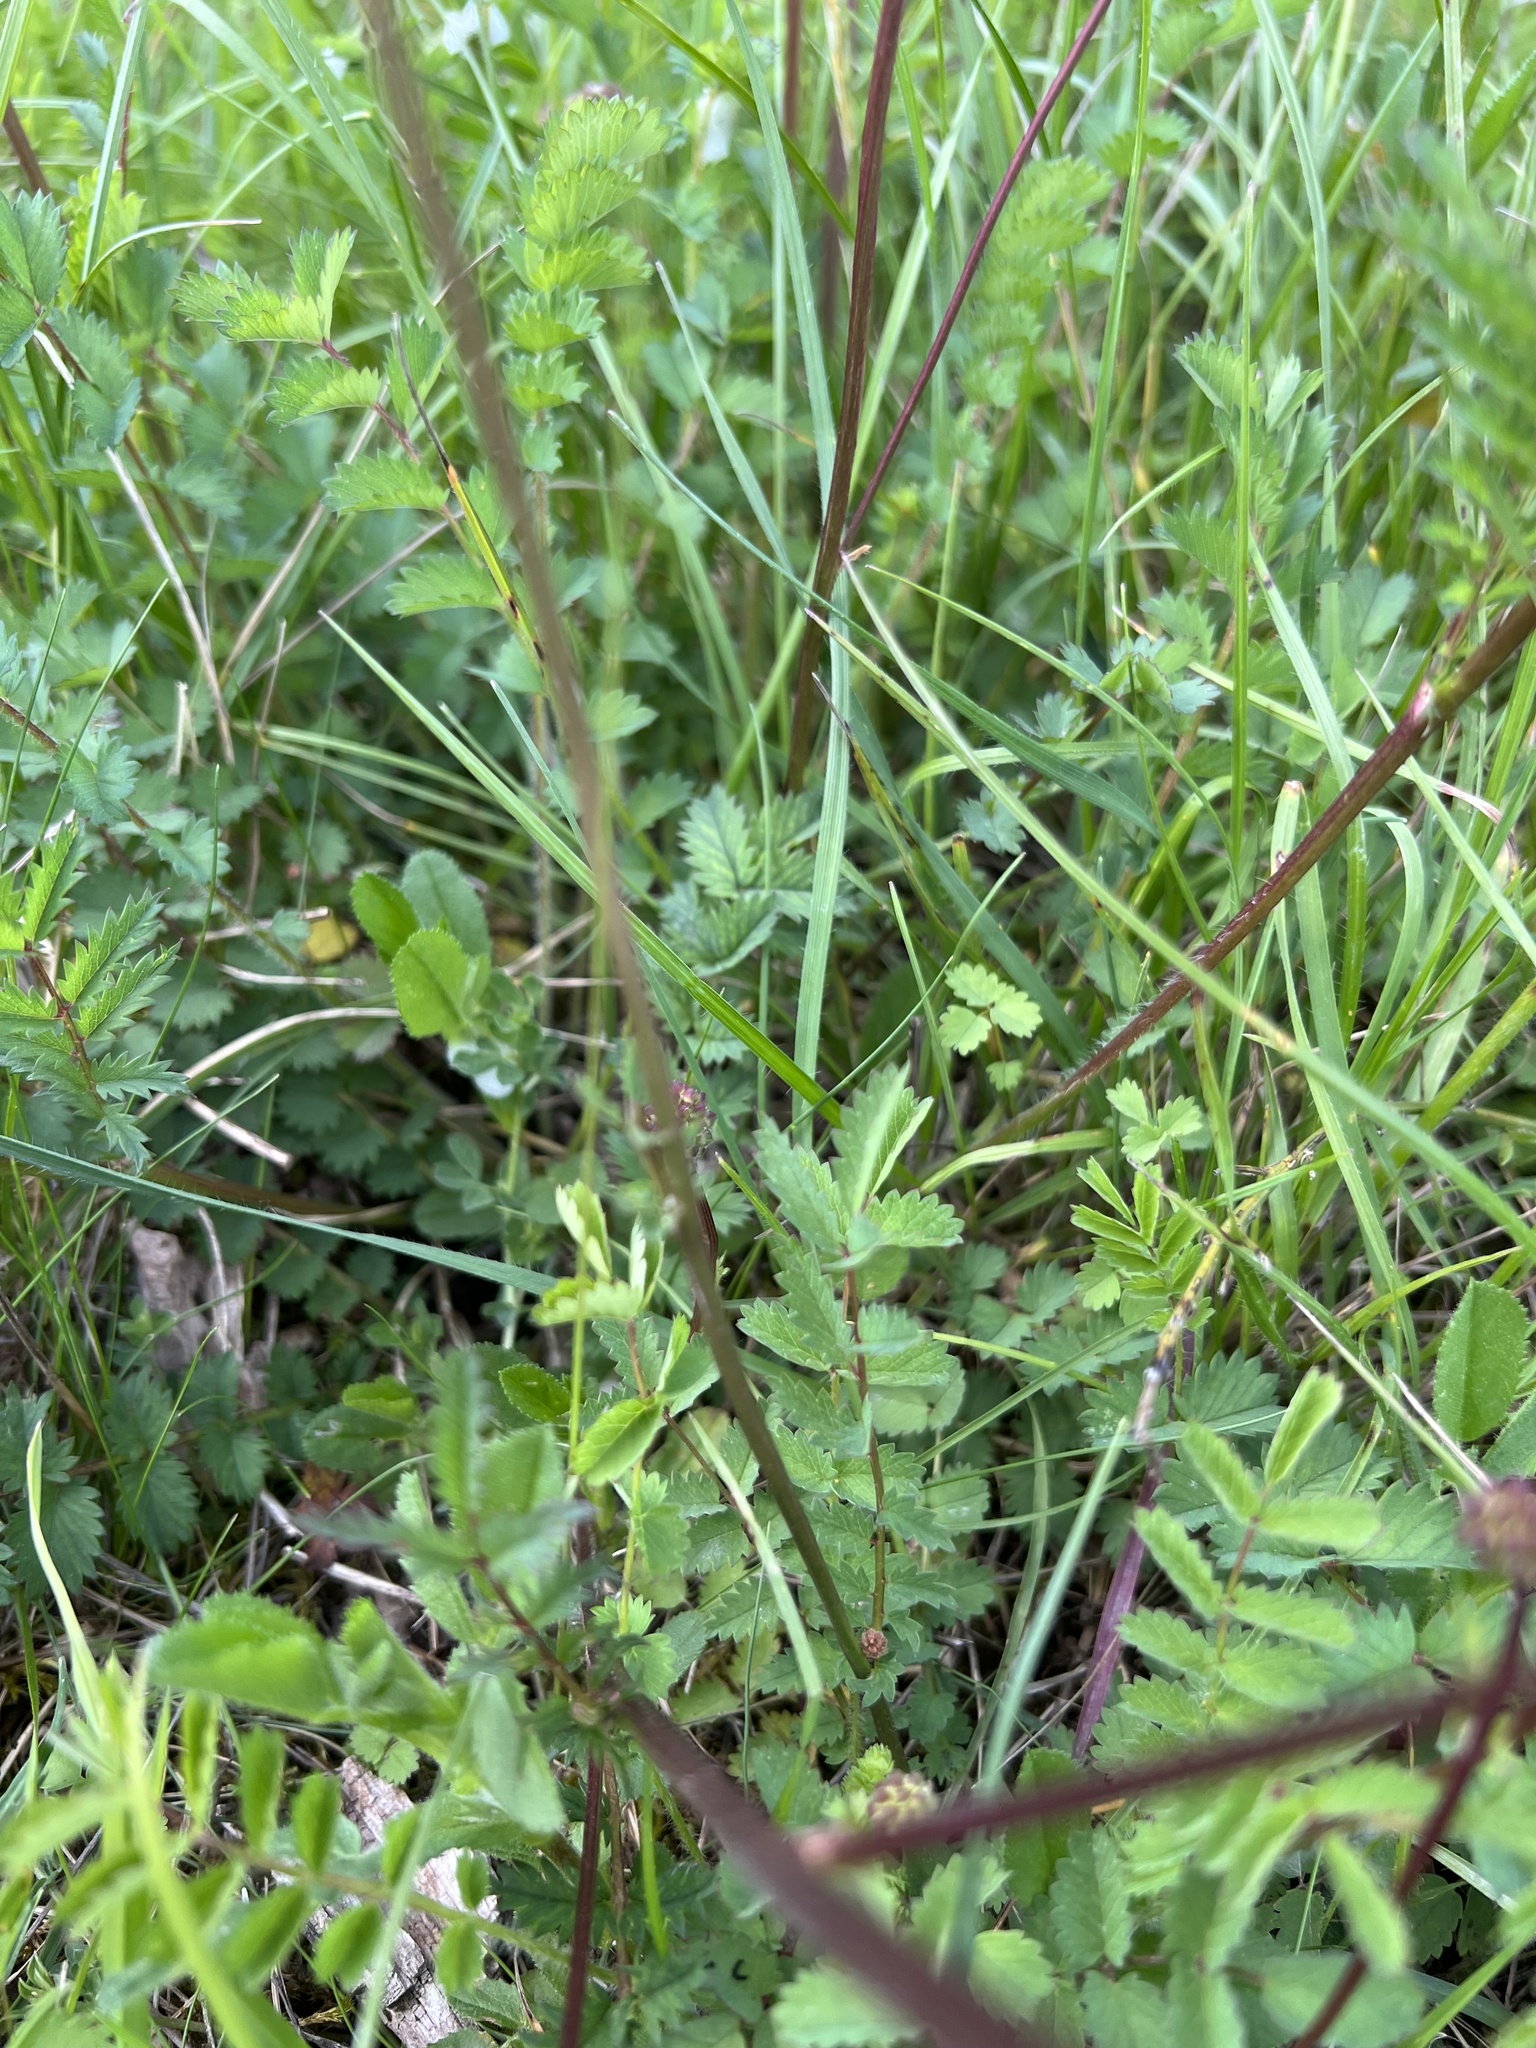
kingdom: Plantae
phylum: Tracheophyta
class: Magnoliopsida
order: Rosales
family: Rosaceae
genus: Poterium
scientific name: Poterium sanguisorba
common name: Salad burnet
